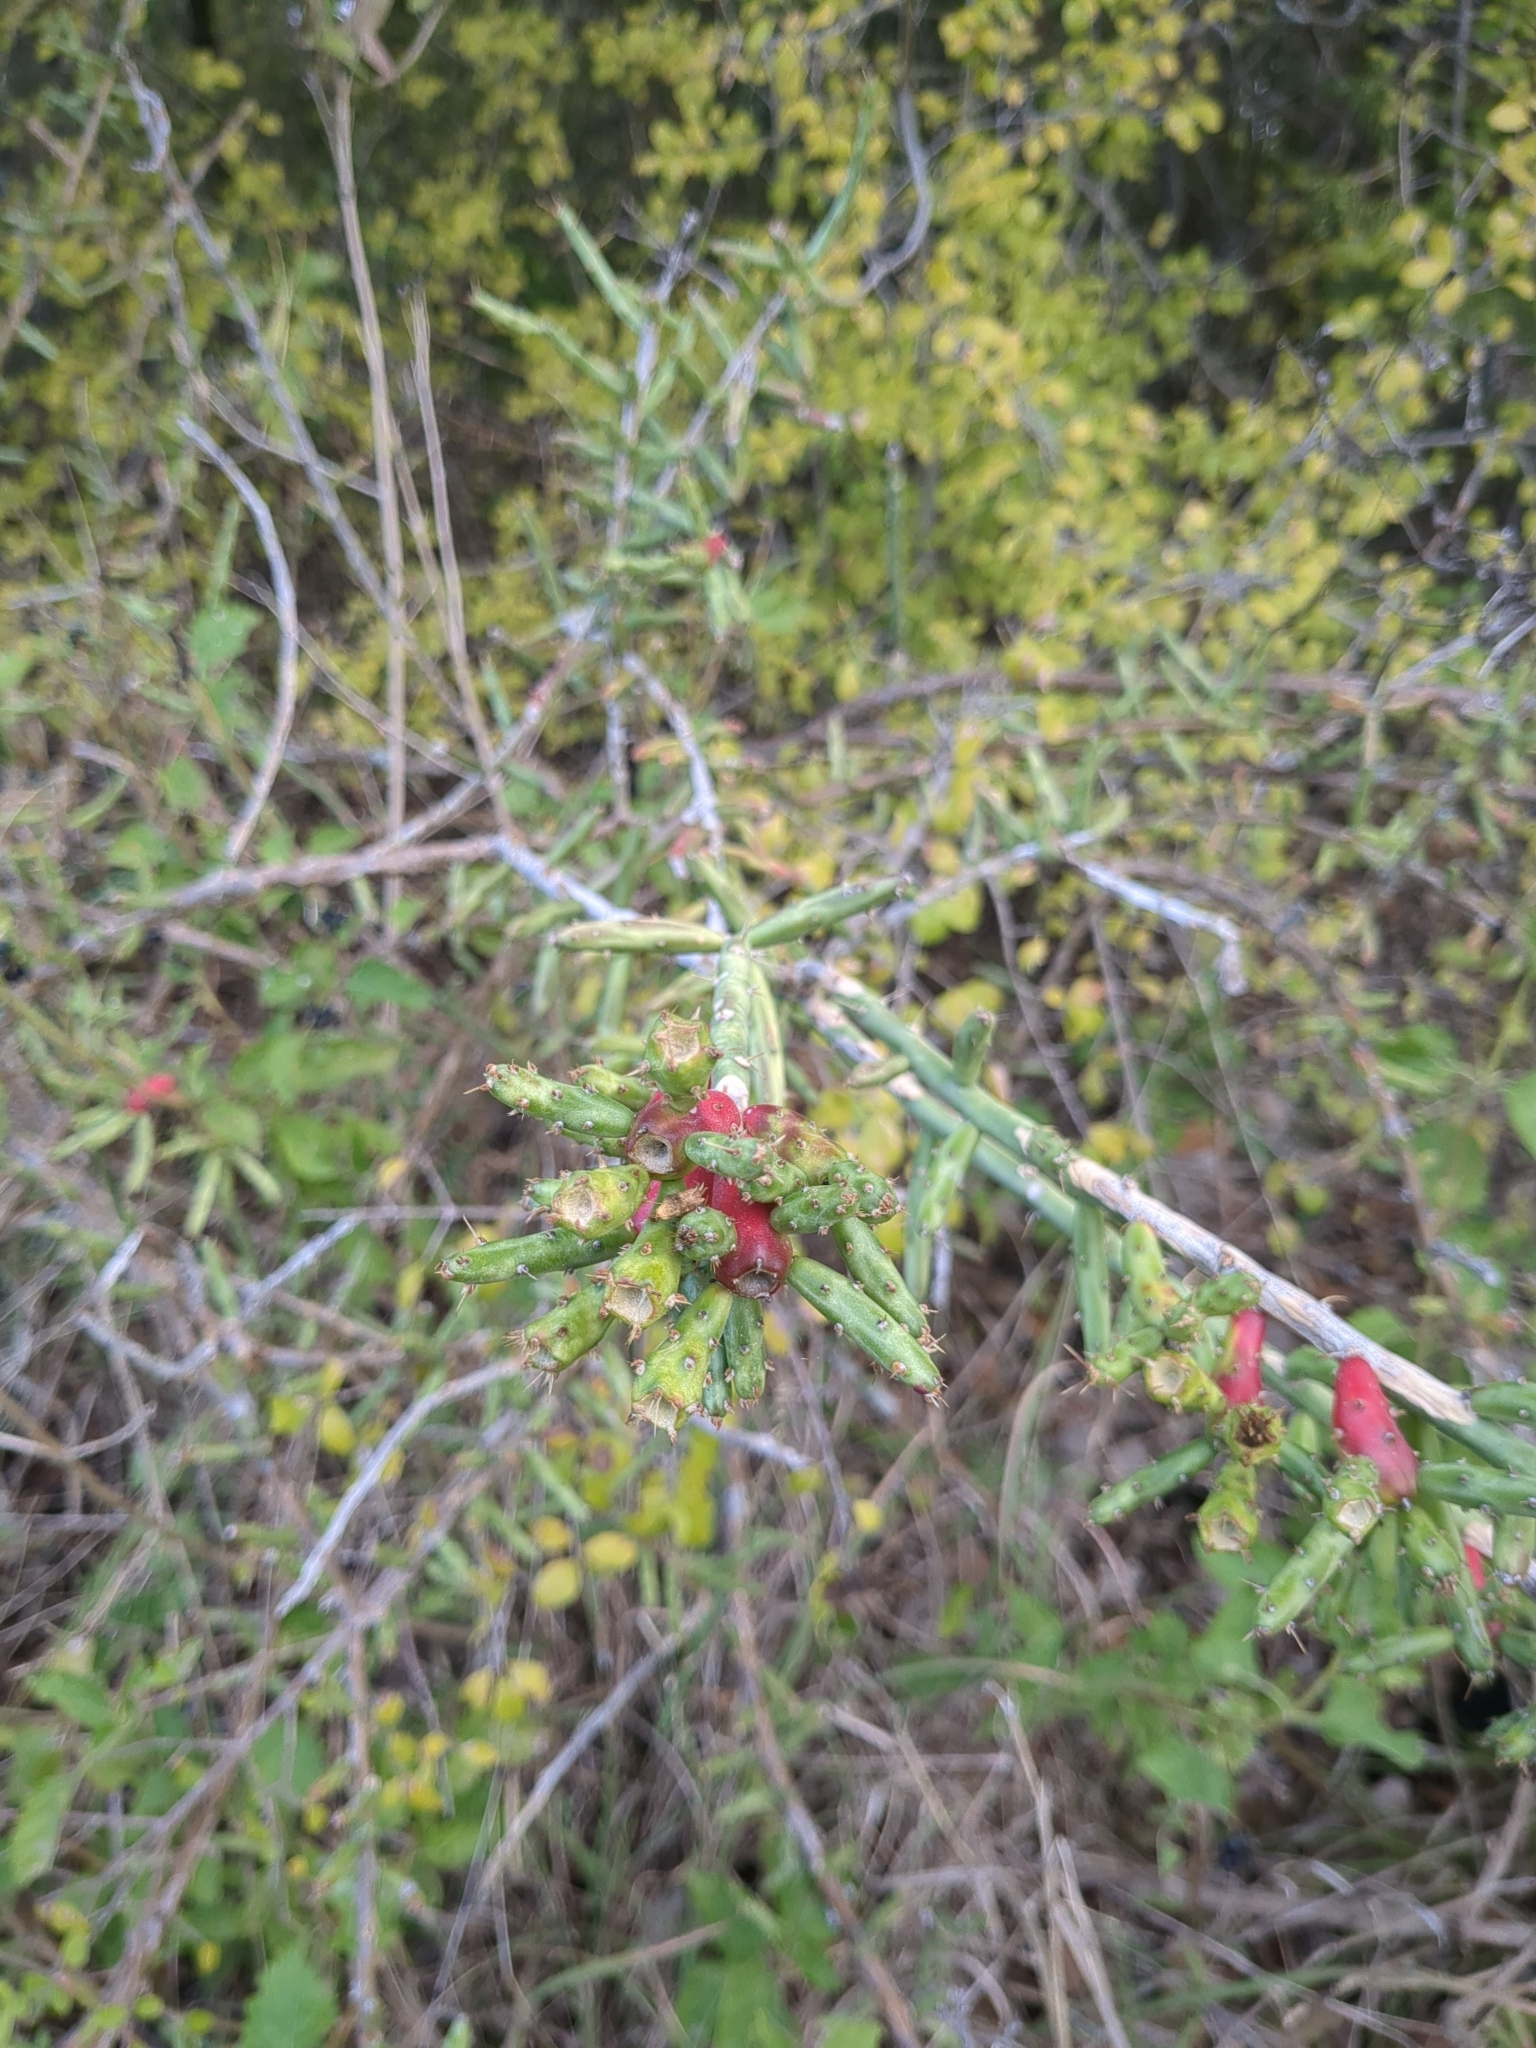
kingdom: Plantae
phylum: Tracheophyta
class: Magnoliopsida
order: Caryophyllales
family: Cactaceae
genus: Cylindropuntia
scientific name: Cylindropuntia leptocaulis
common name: Christmas cactus
